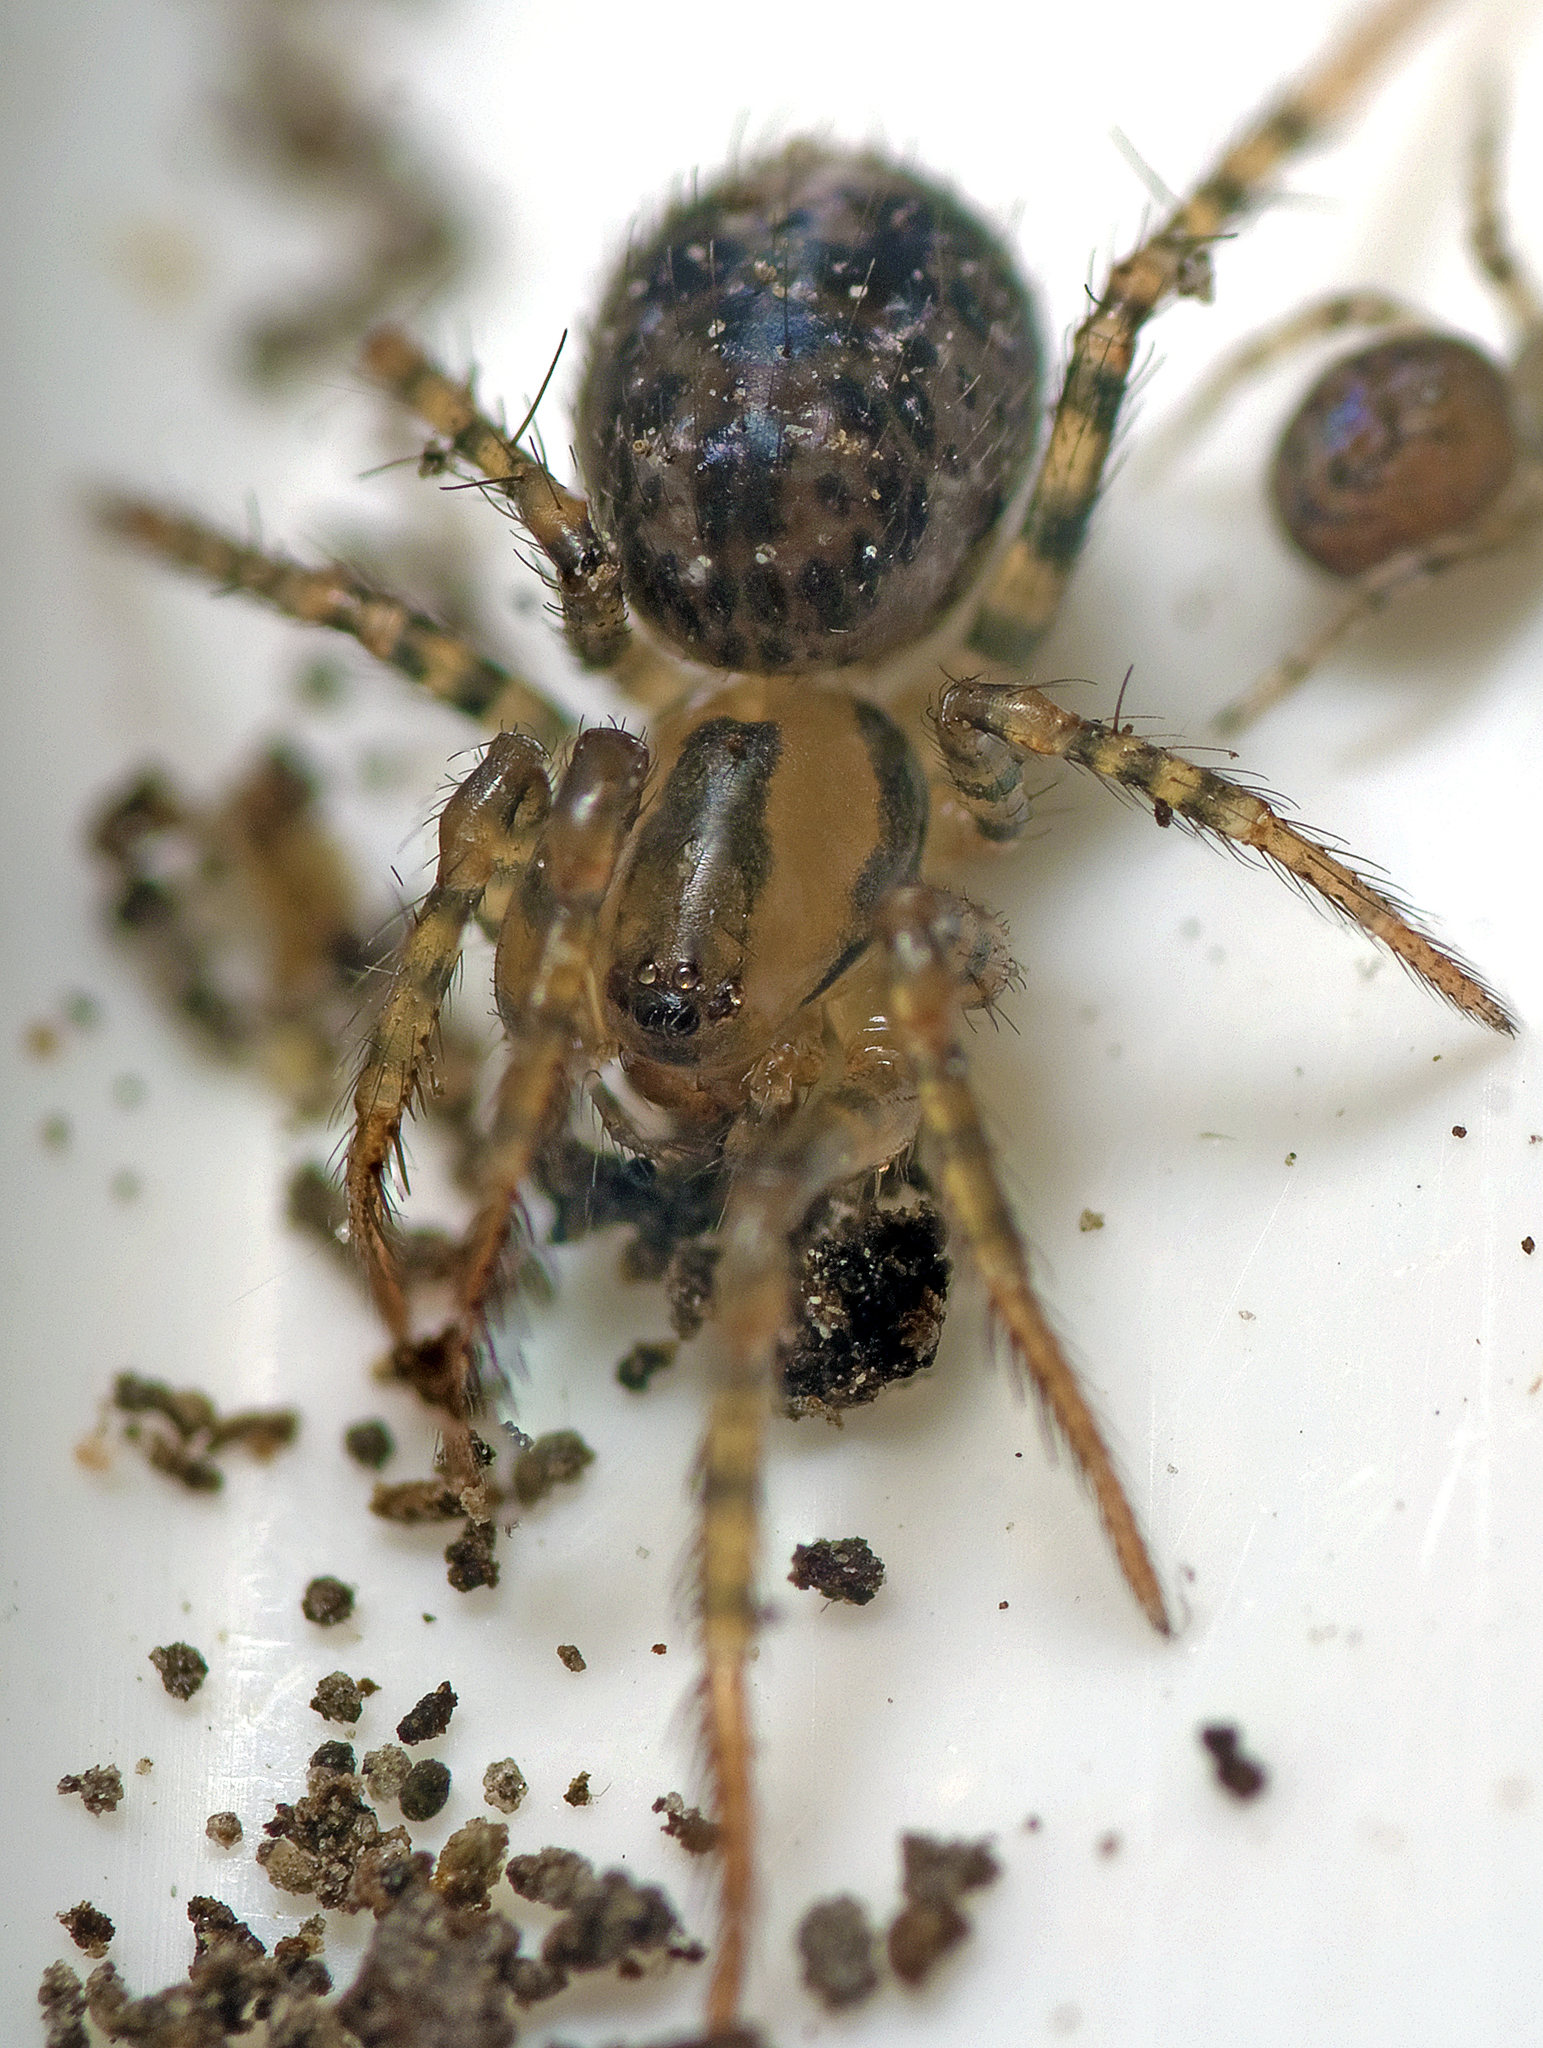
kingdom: Animalia
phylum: Arthropoda
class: Arachnida
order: Araneae
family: Mimetidae
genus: Australomimetus
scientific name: Australomimetus tasmaniensis
